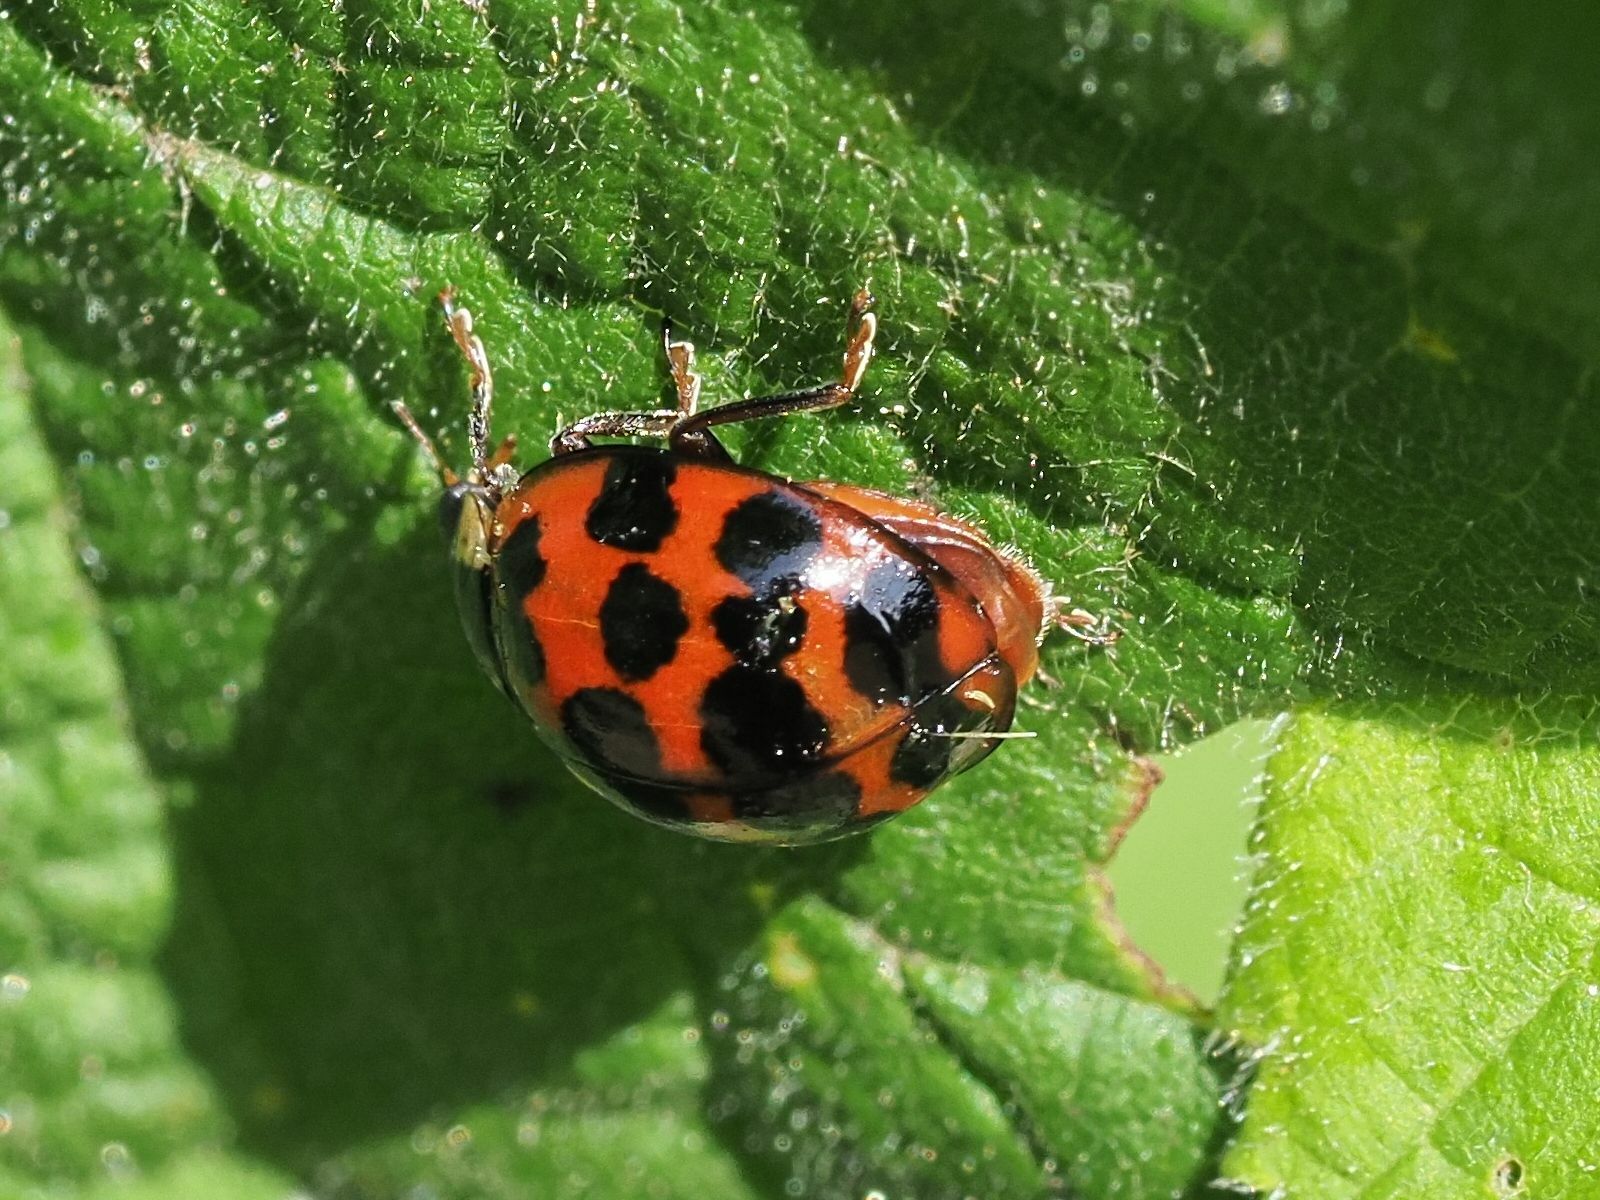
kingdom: Animalia
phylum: Arthropoda
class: Insecta
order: Coleoptera
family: Coccinellidae
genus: Harmonia
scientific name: Harmonia axyridis
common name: Harlequin ladybird
